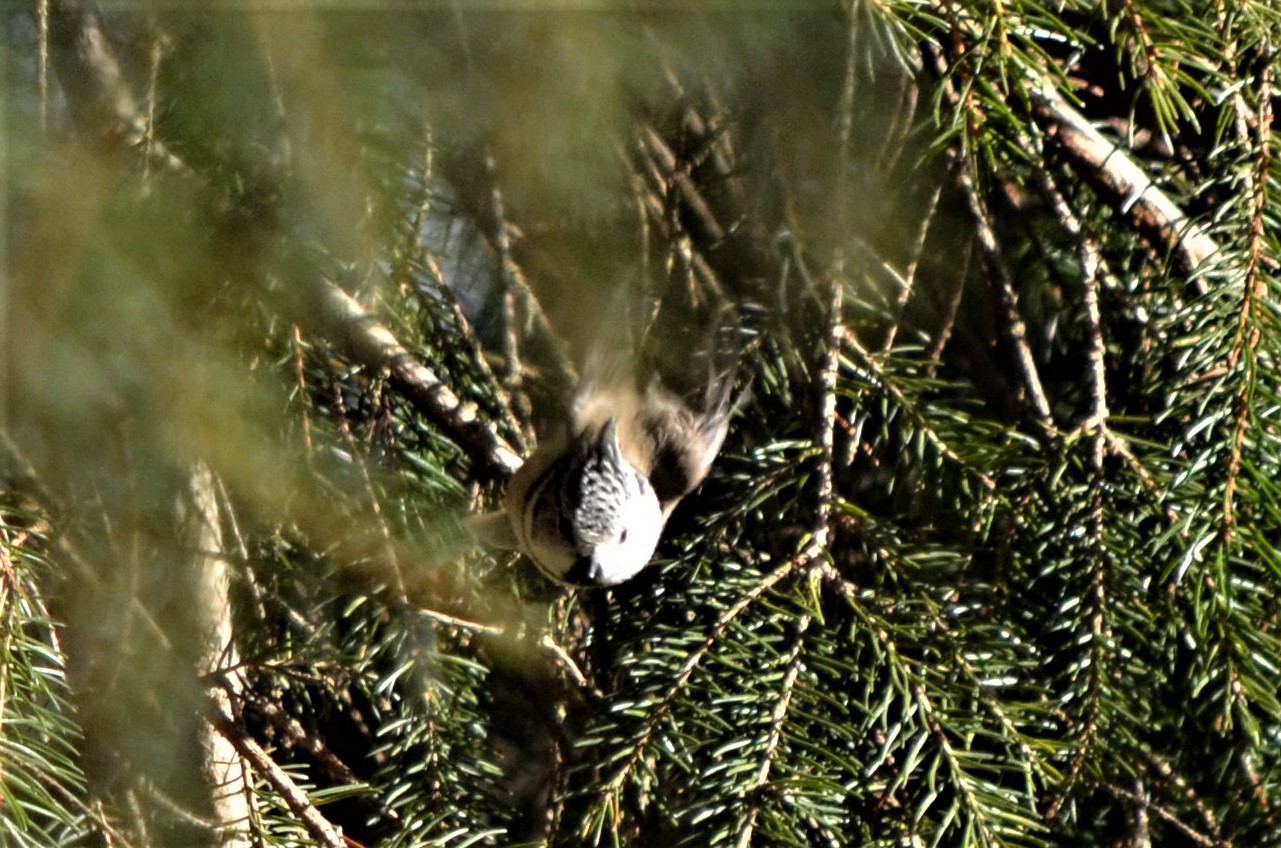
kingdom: Animalia
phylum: Chordata
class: Aves
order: Passeriformes
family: Paridae
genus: Lophophanes
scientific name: Lophophanes cristatus
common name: European crested tit
